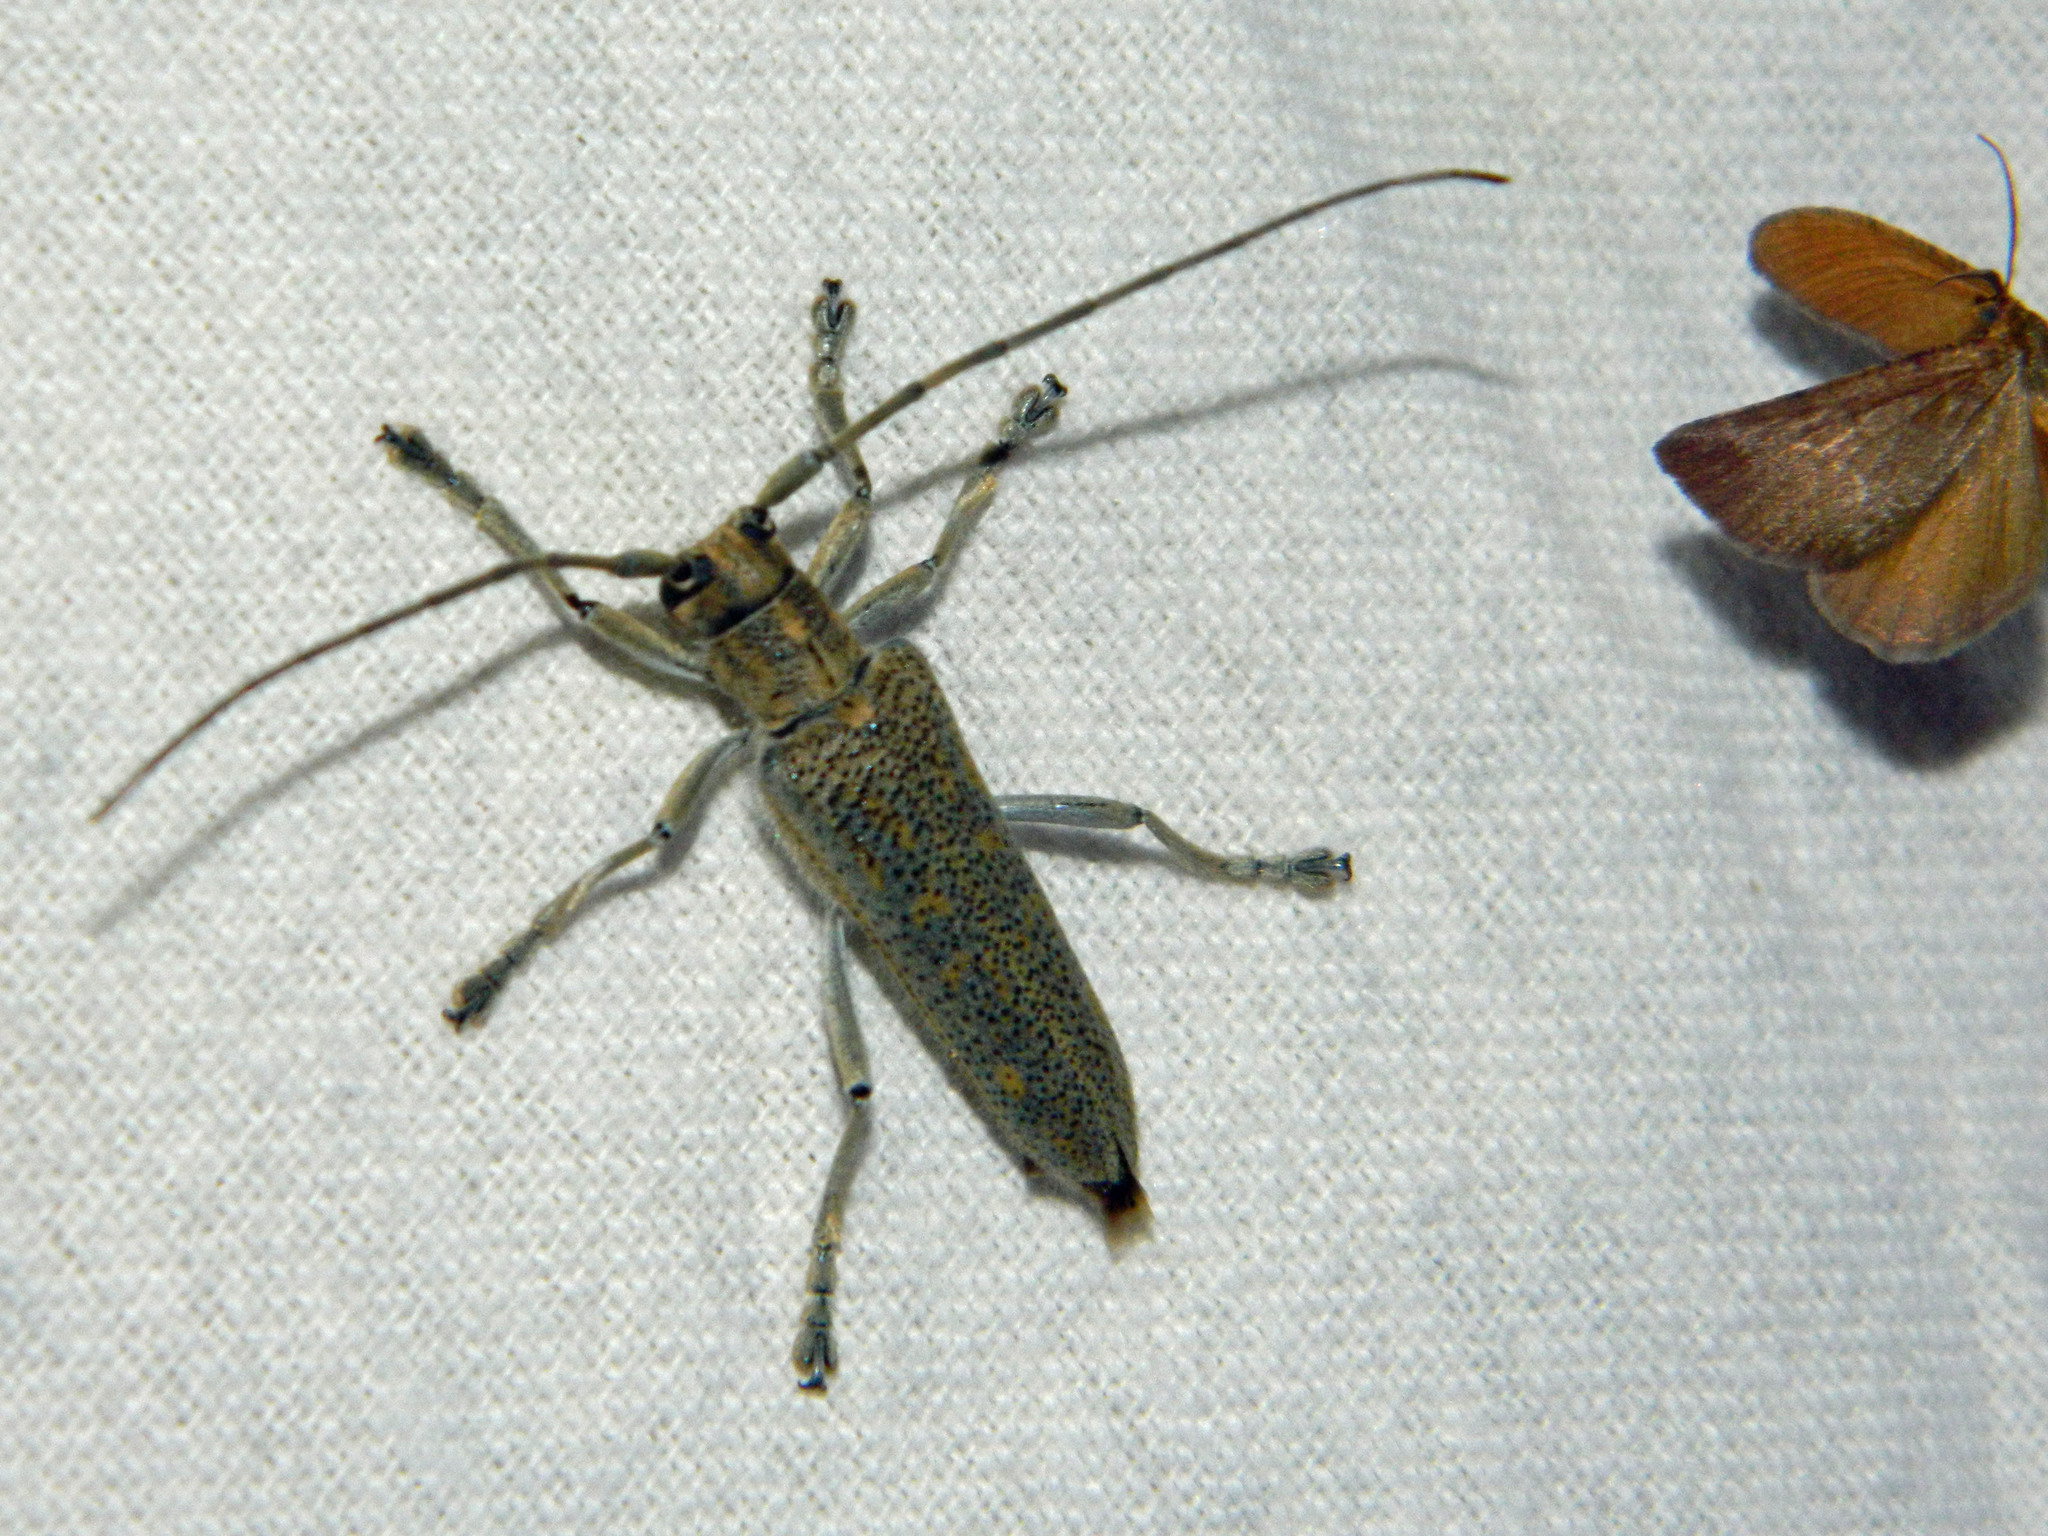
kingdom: Animalia
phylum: Arthropoda
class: Insecta
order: Coleoptera
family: Cerambycidae
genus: Saperda
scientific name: Saperda calcarata
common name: Poplar borer
